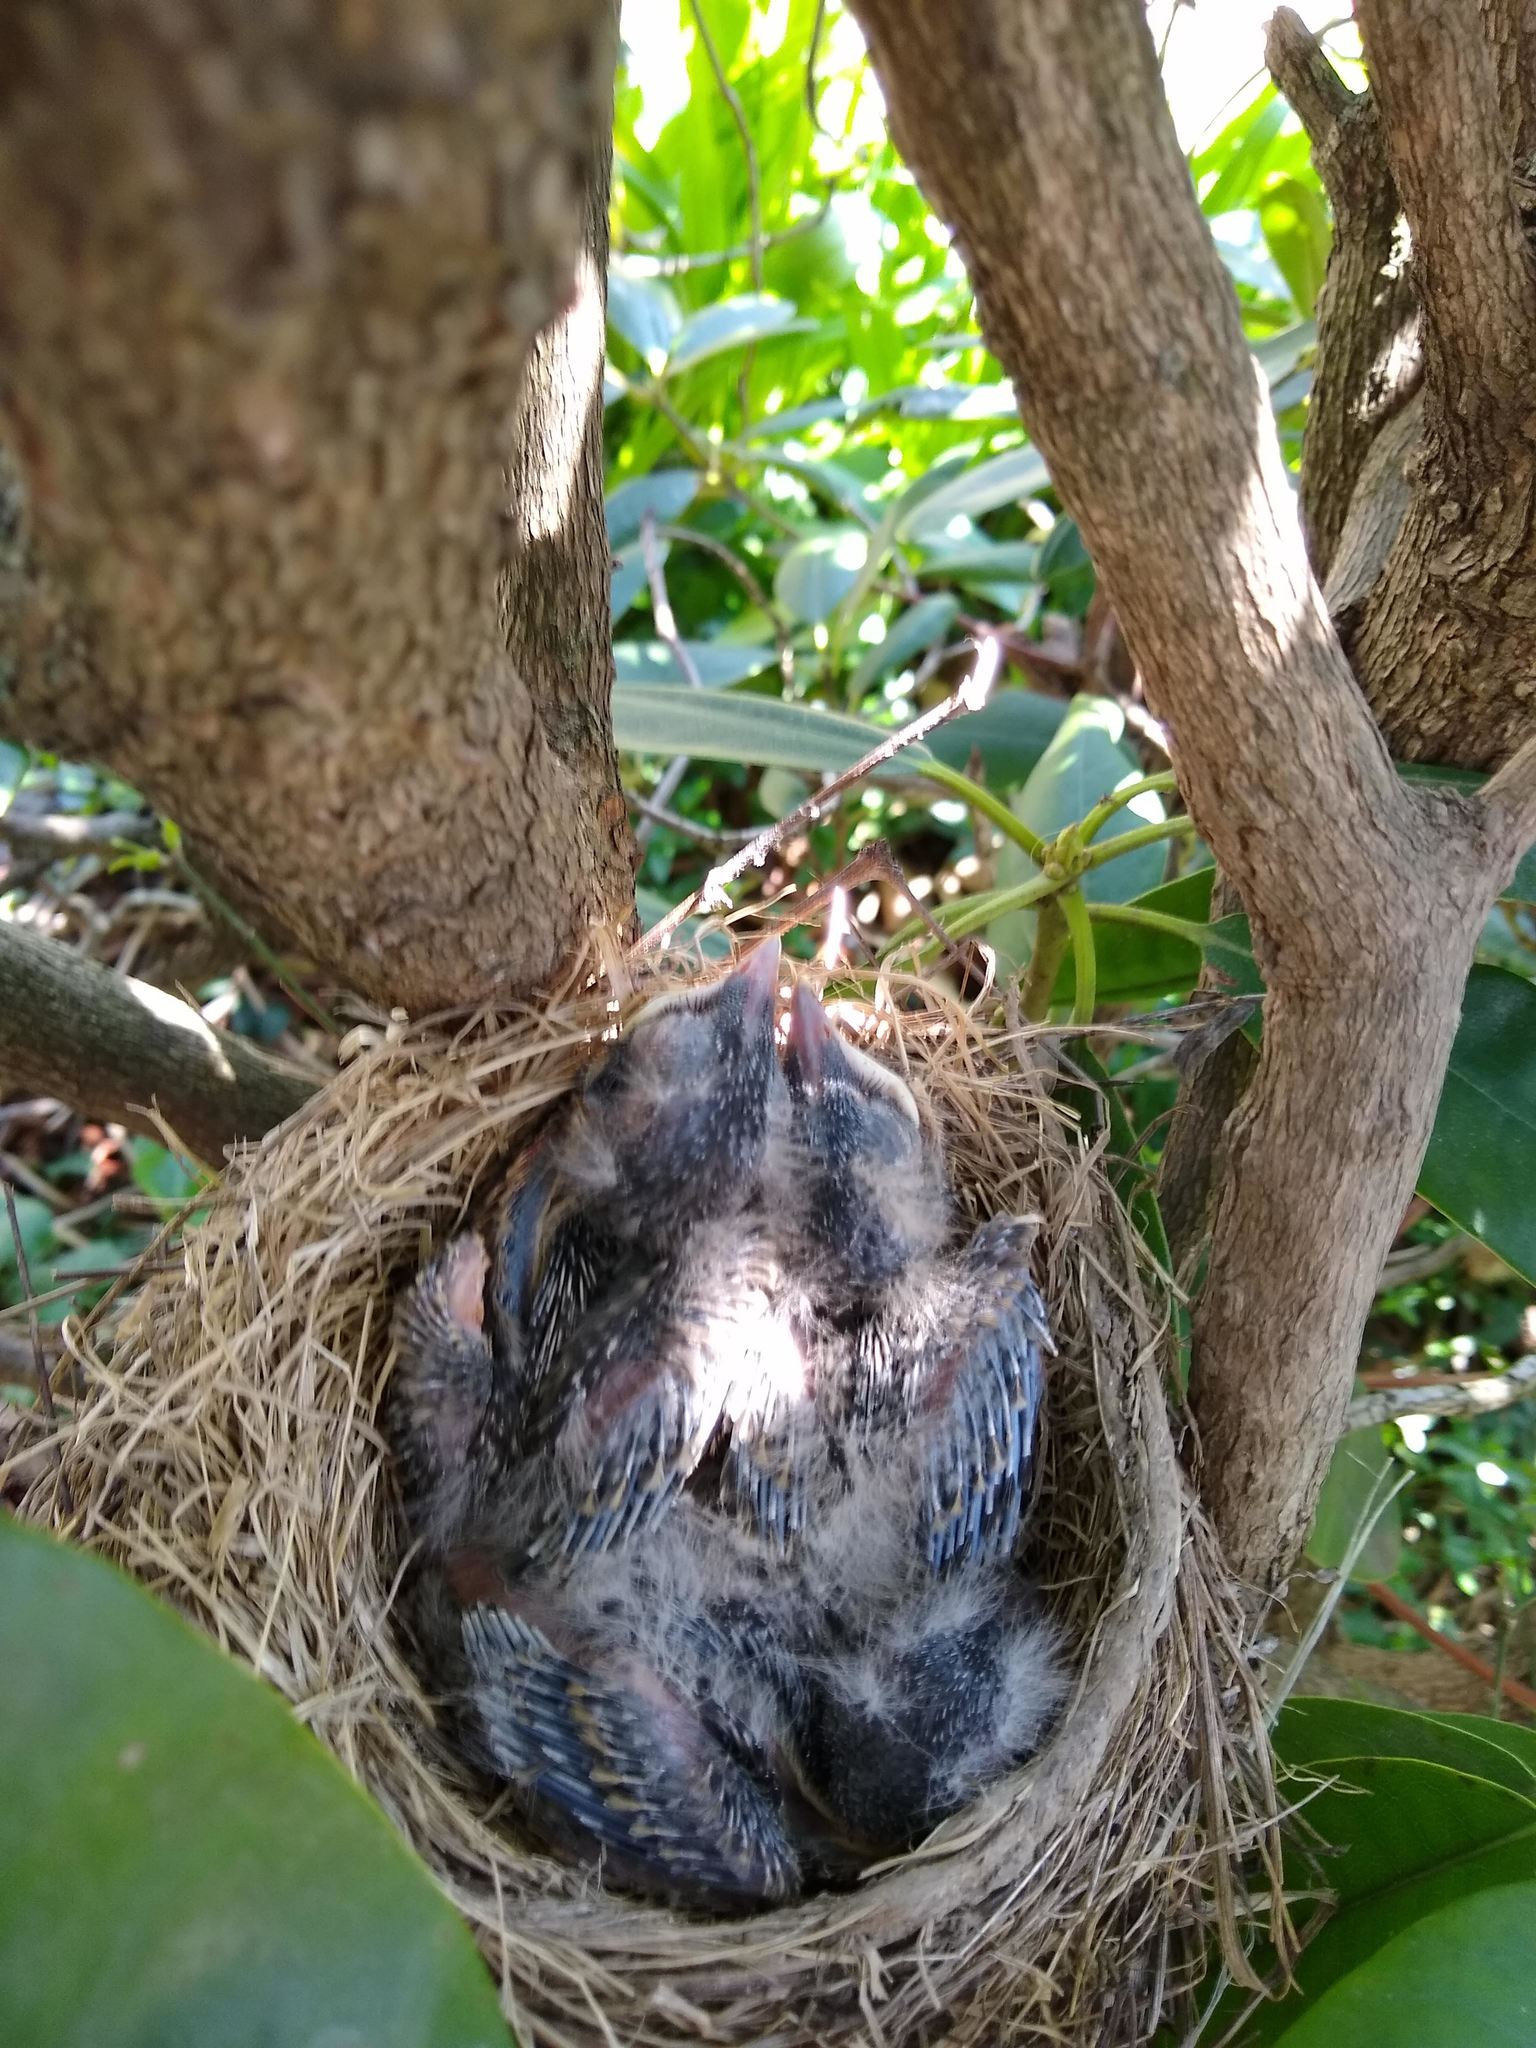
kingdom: Animalia
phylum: Chordata
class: Aves
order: Passeriformes
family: Turdidae
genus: Turdus
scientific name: Turdus migratorius
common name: American robin
